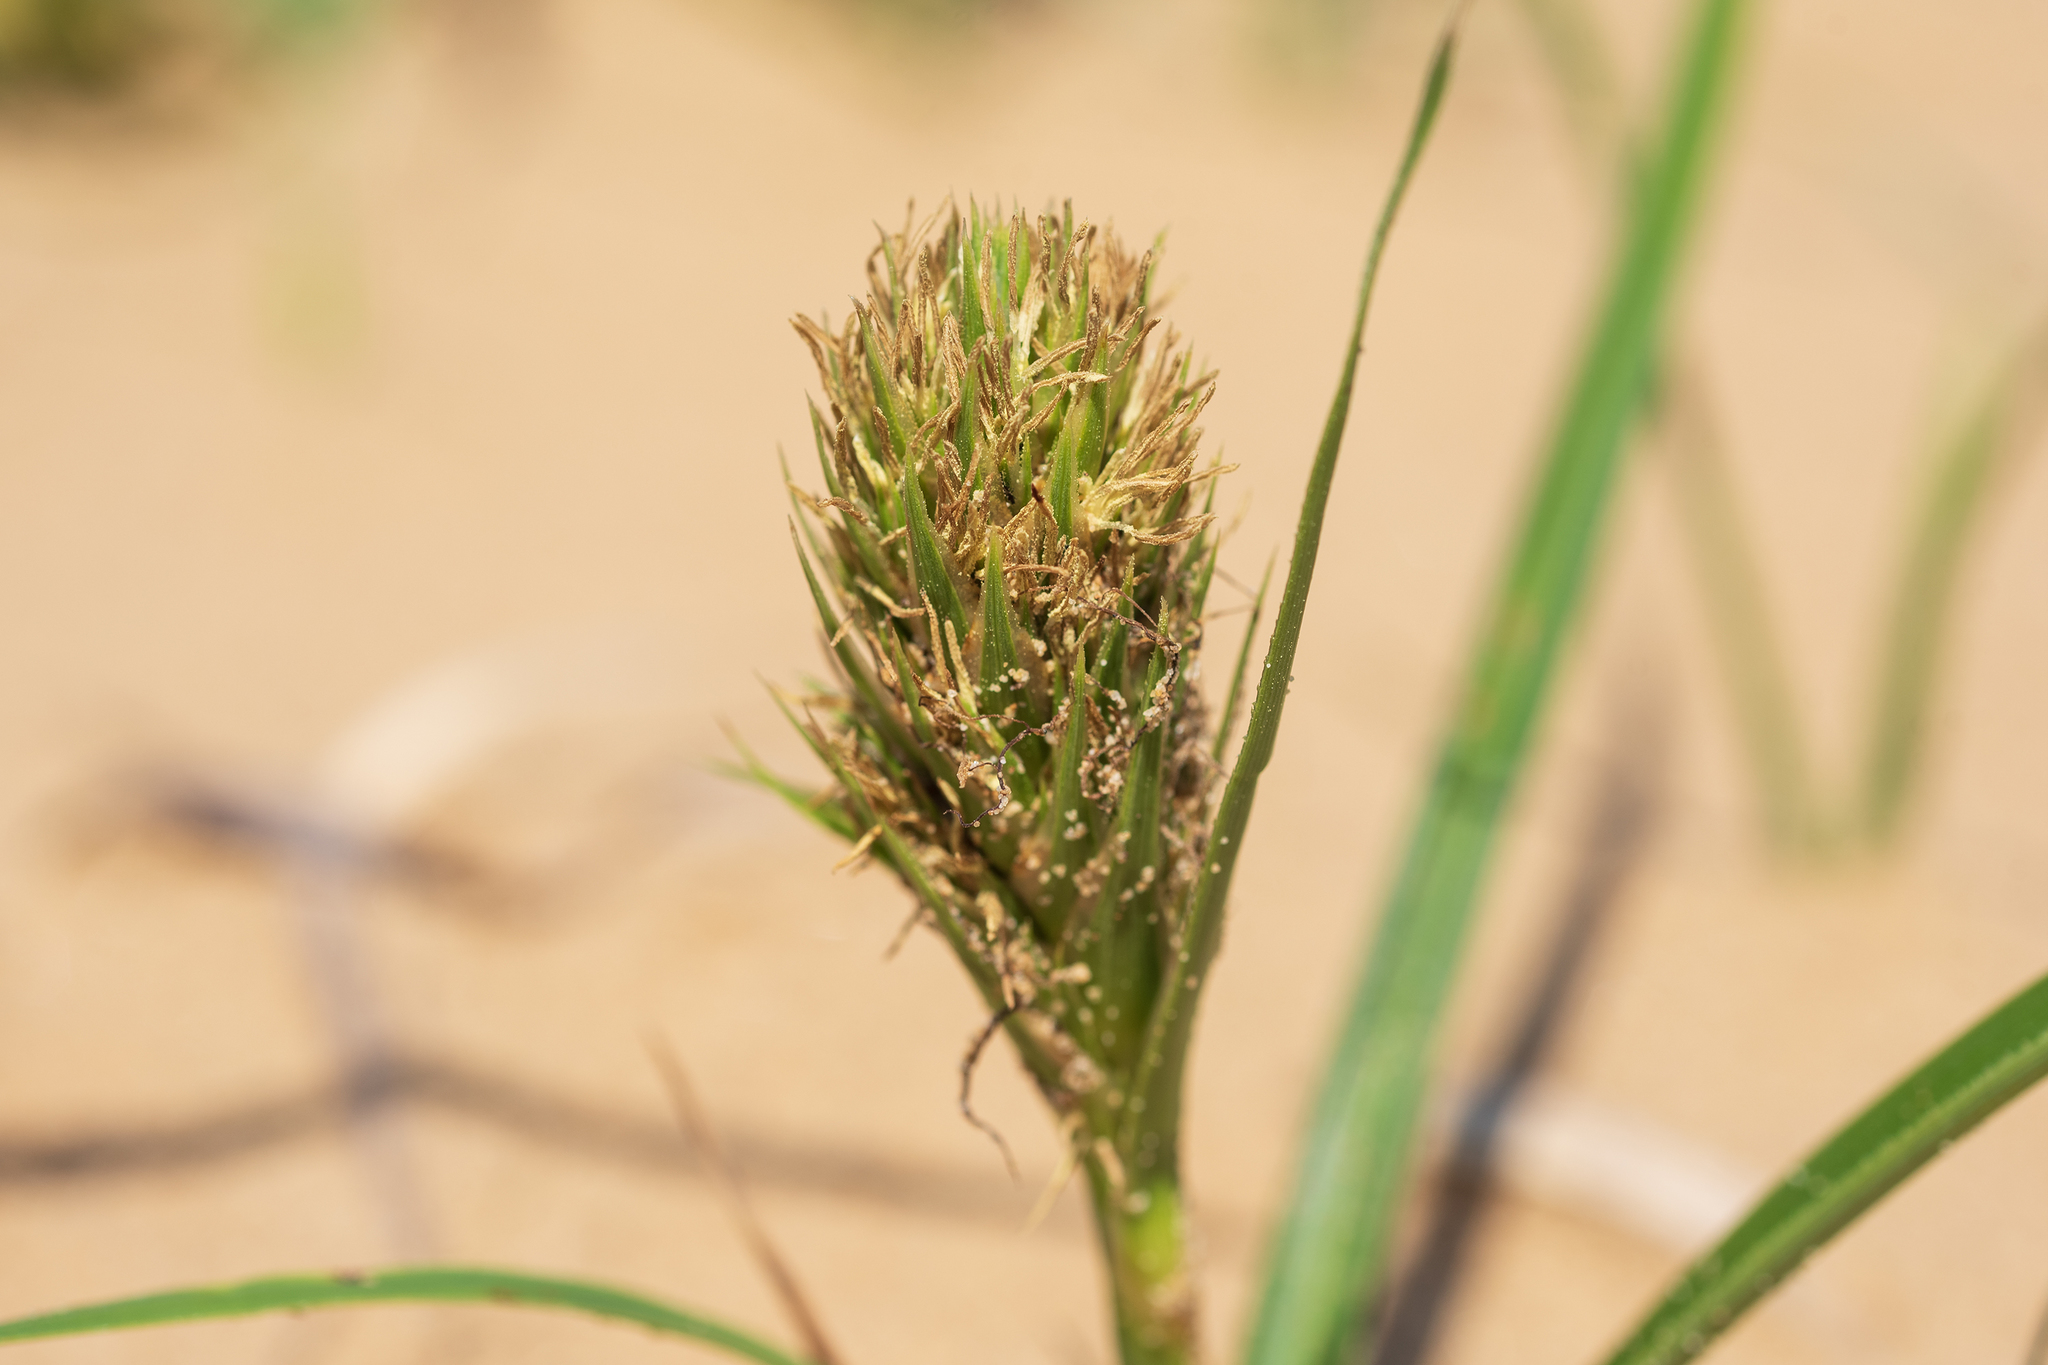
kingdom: Plantae
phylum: Tracheophyta
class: Liliopsida
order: Poales
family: Cyperaceae
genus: Carex
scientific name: Carex kobomugi
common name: Japanese sedge
